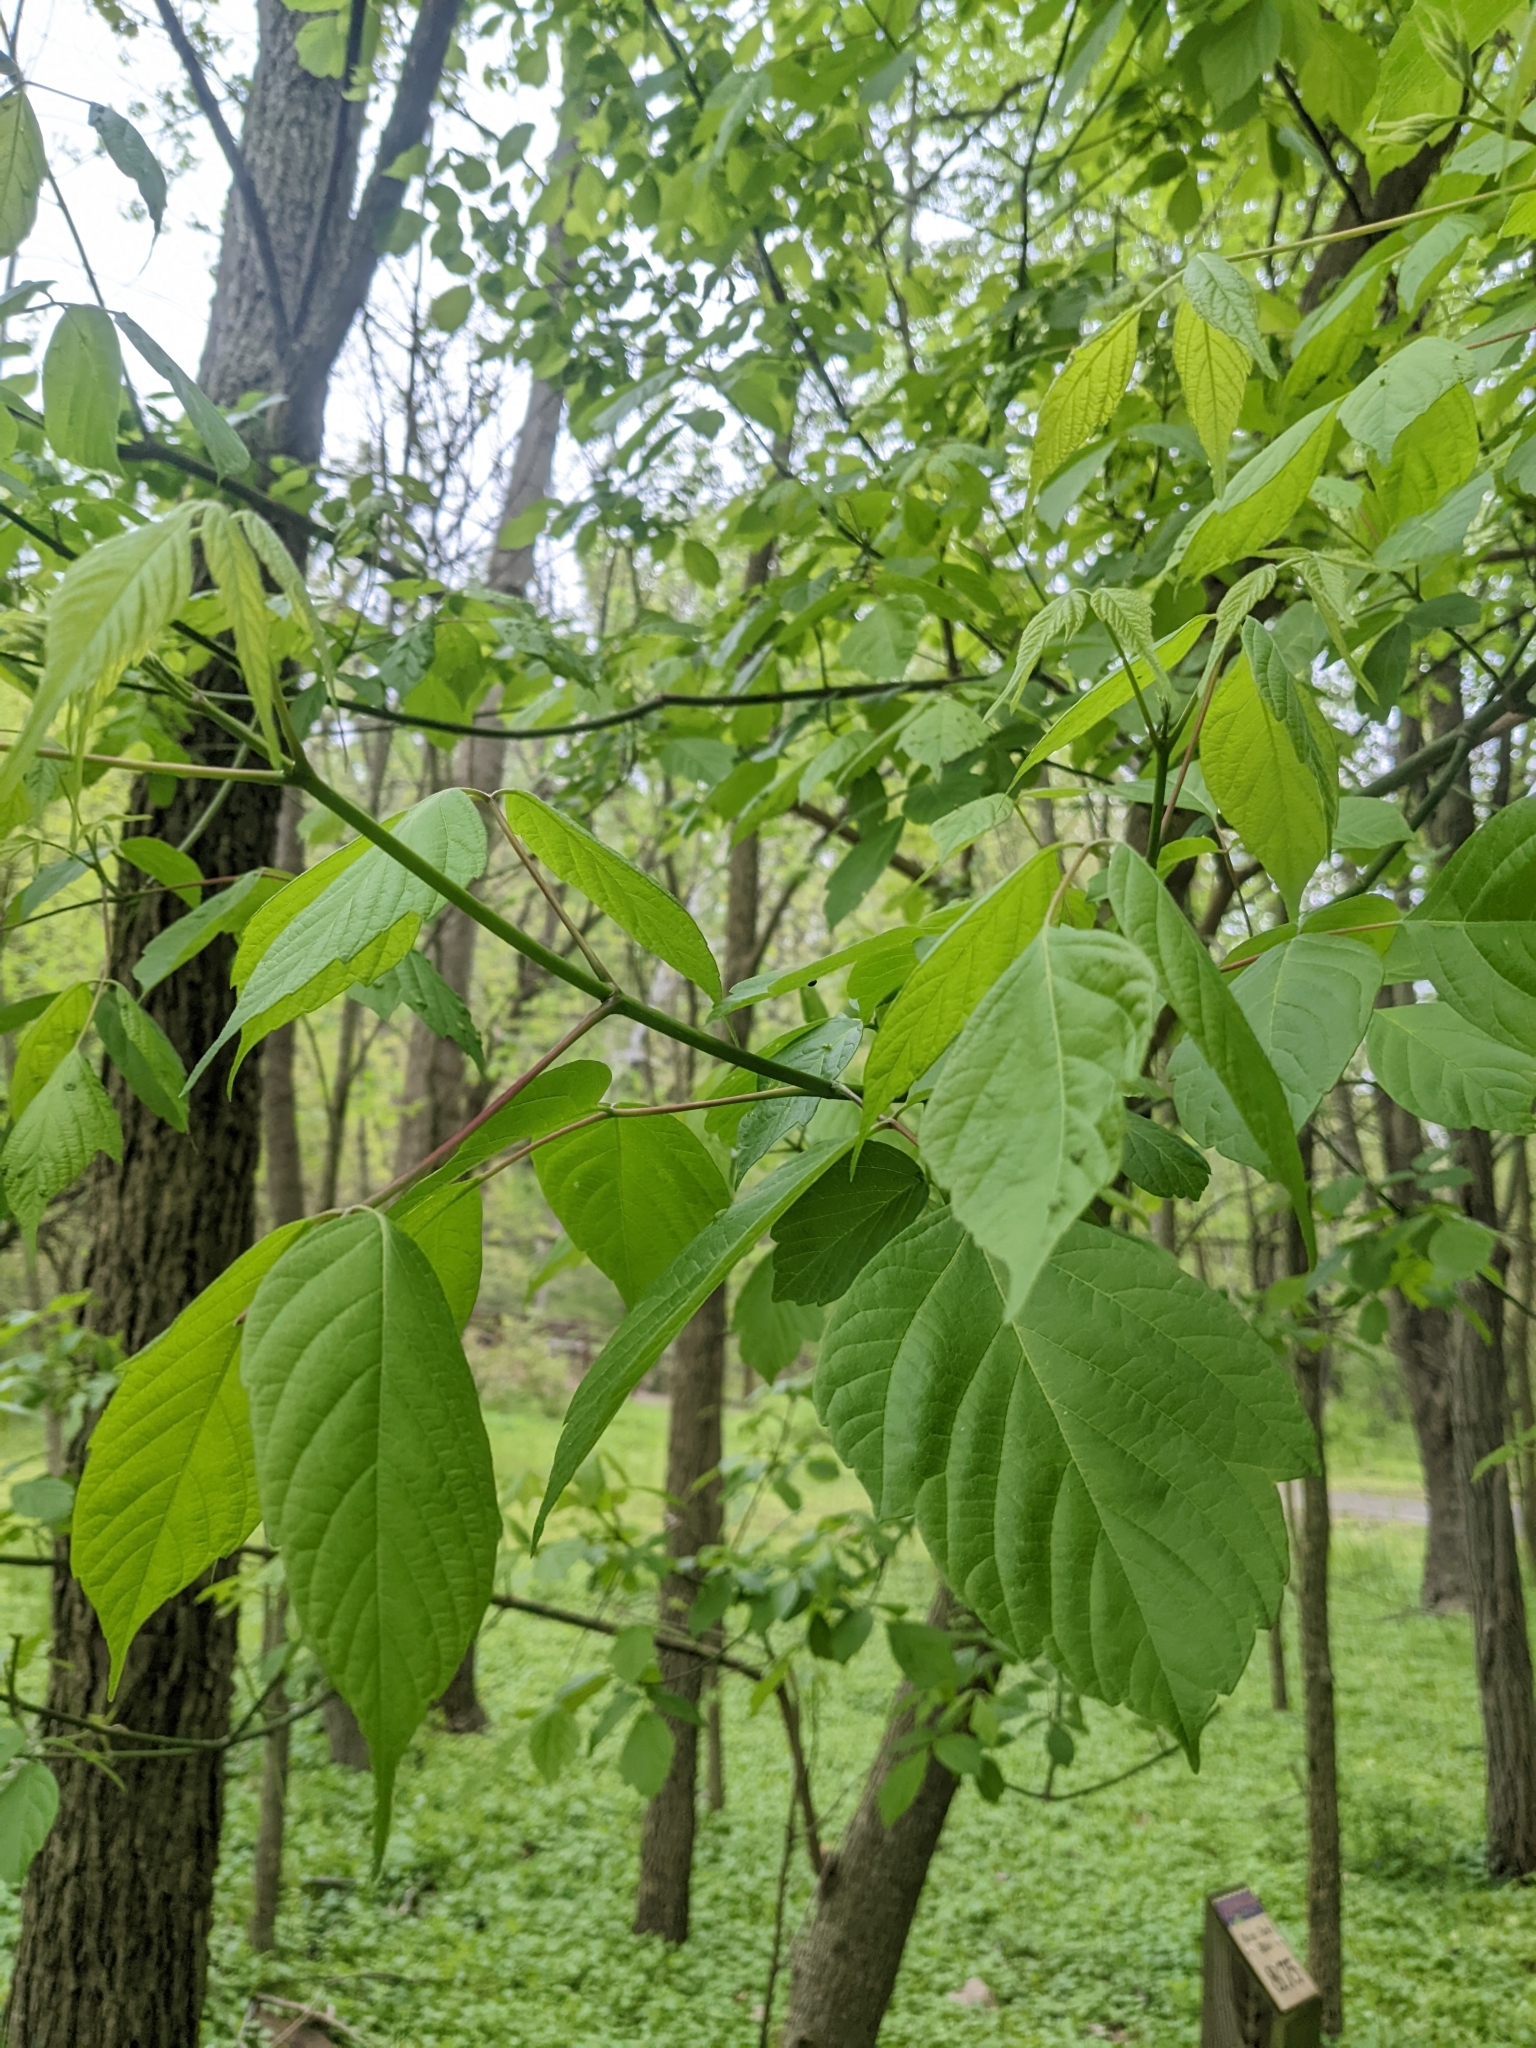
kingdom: Plantae
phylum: Tracheophyta
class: Magnoliopsida
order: Sapindales
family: Sapindaceae
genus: Acer
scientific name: Acer negundo
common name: Ashleaf maple
